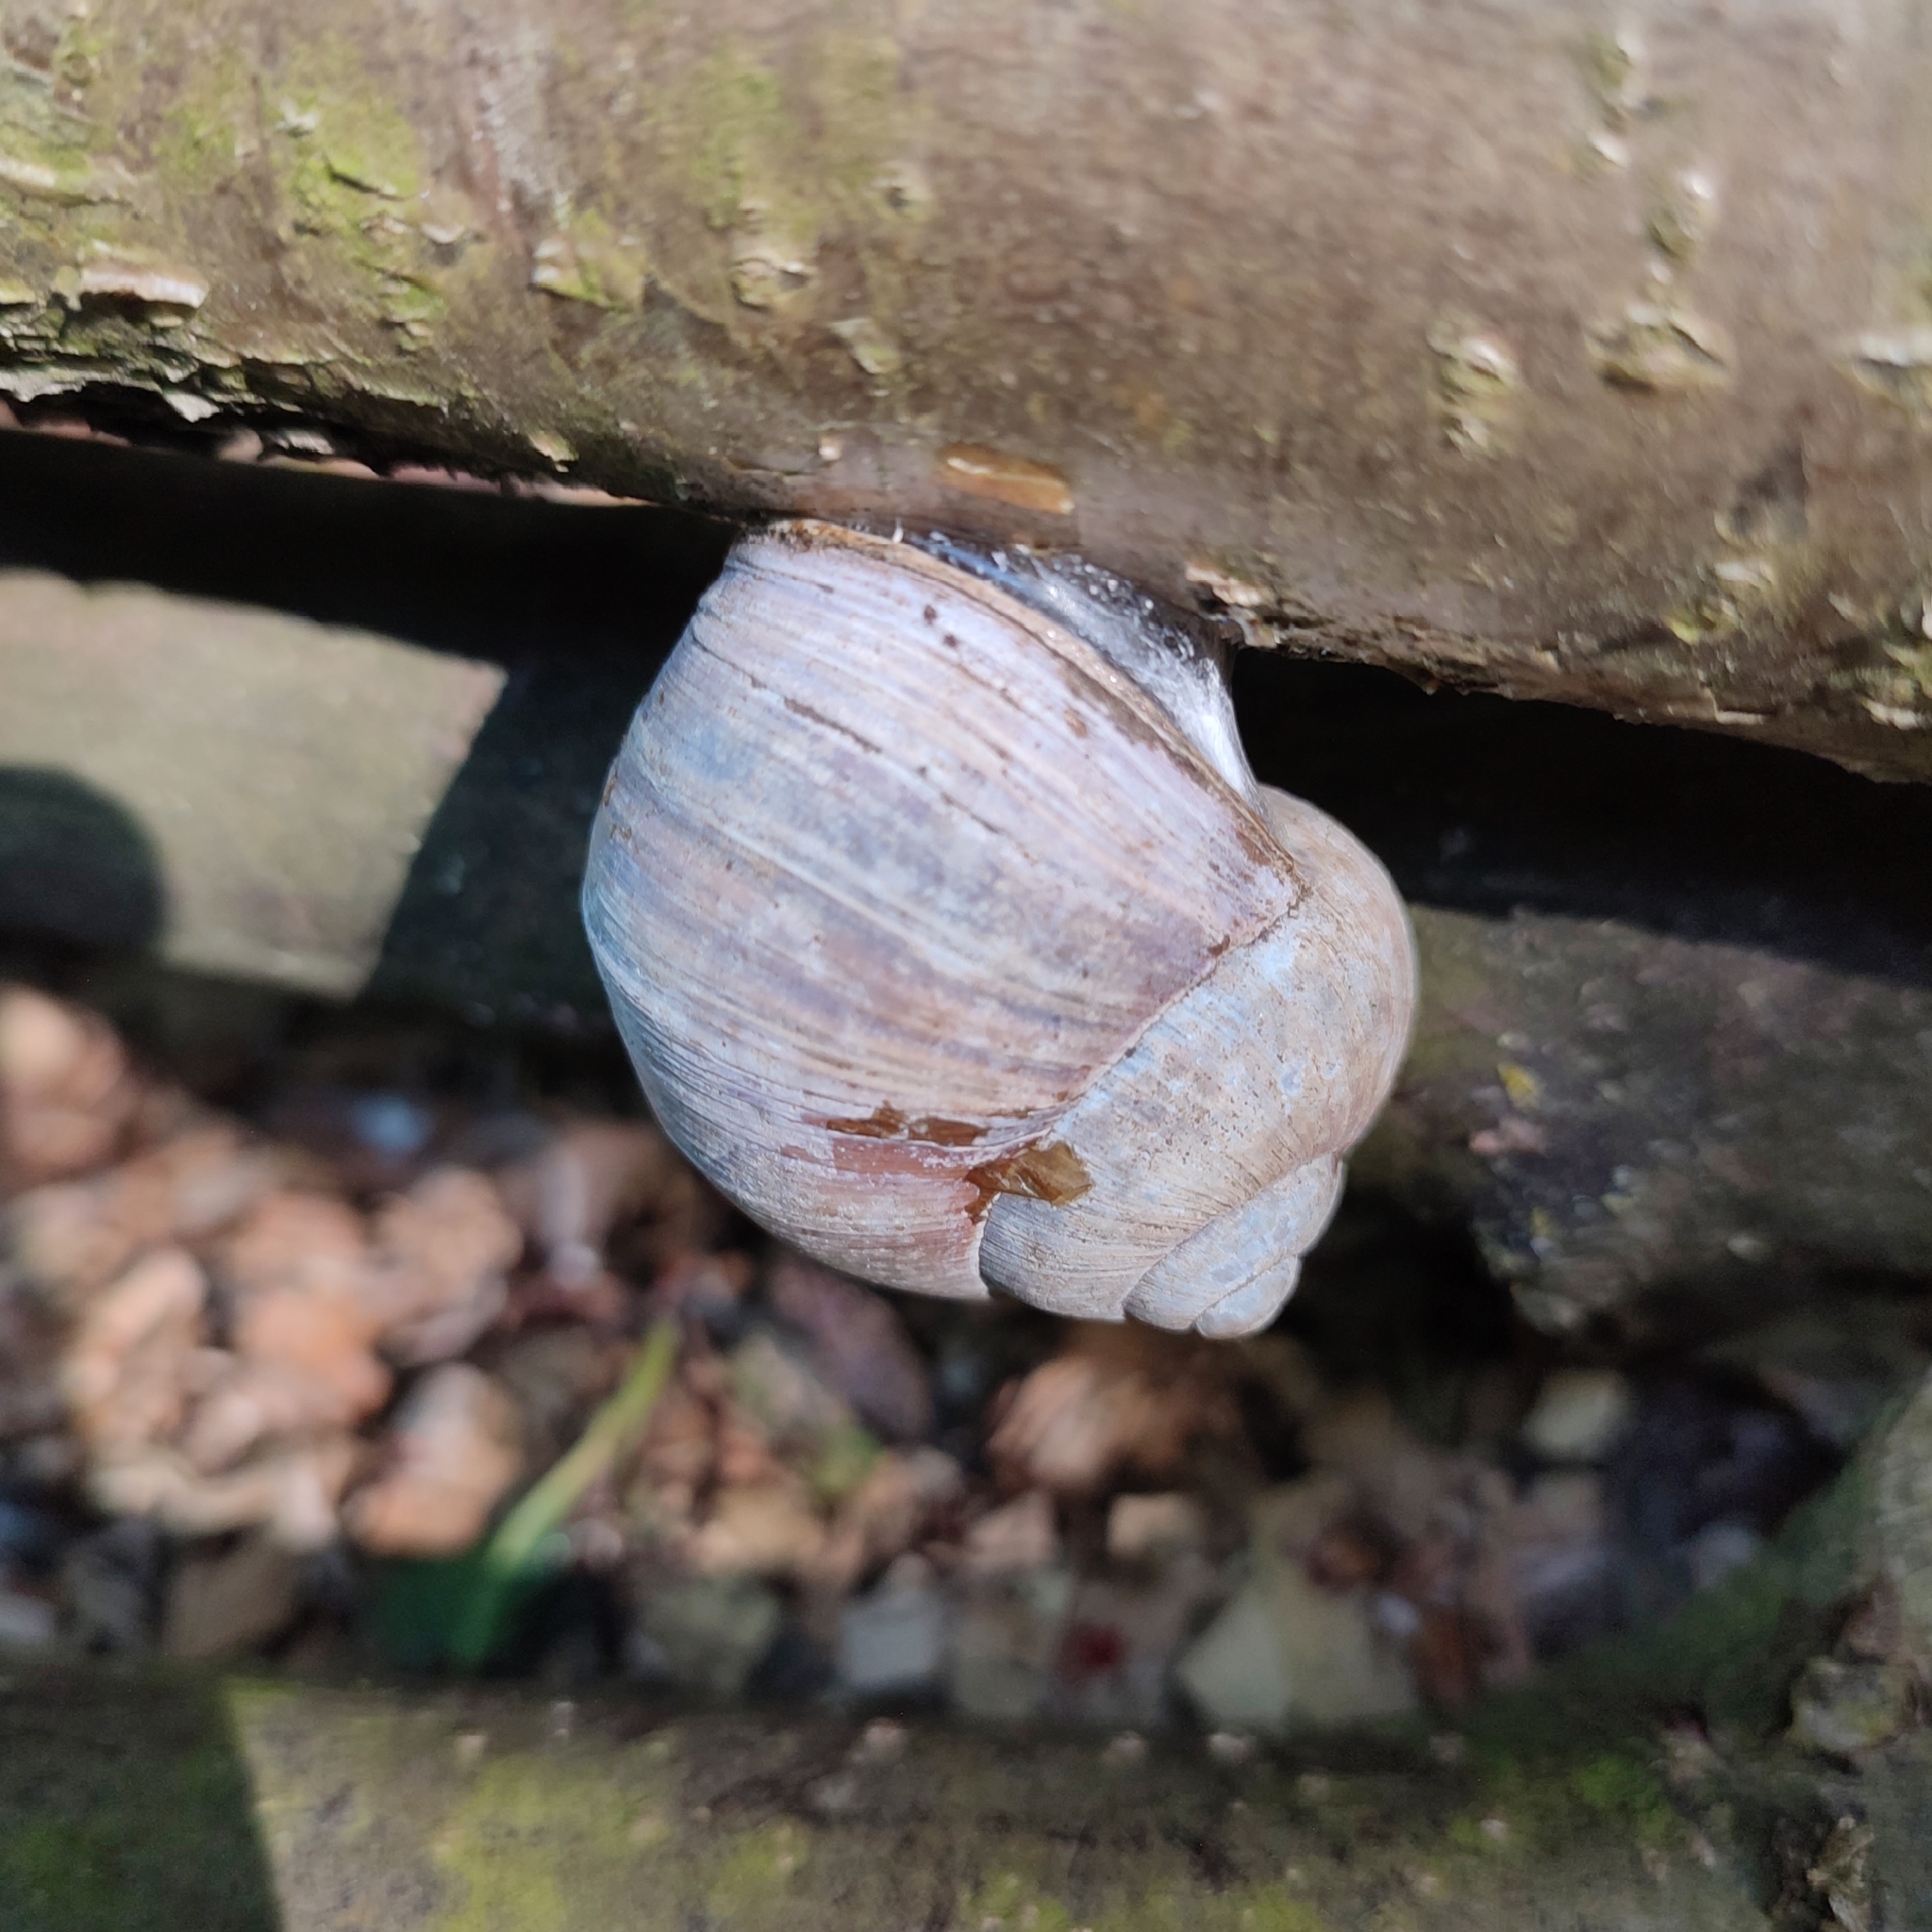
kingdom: Animalia
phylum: Mollusca
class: Gastropoda
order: Stylommatophora
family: Helicidae
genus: Helix
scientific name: Helix pomatia
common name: Roman snail
